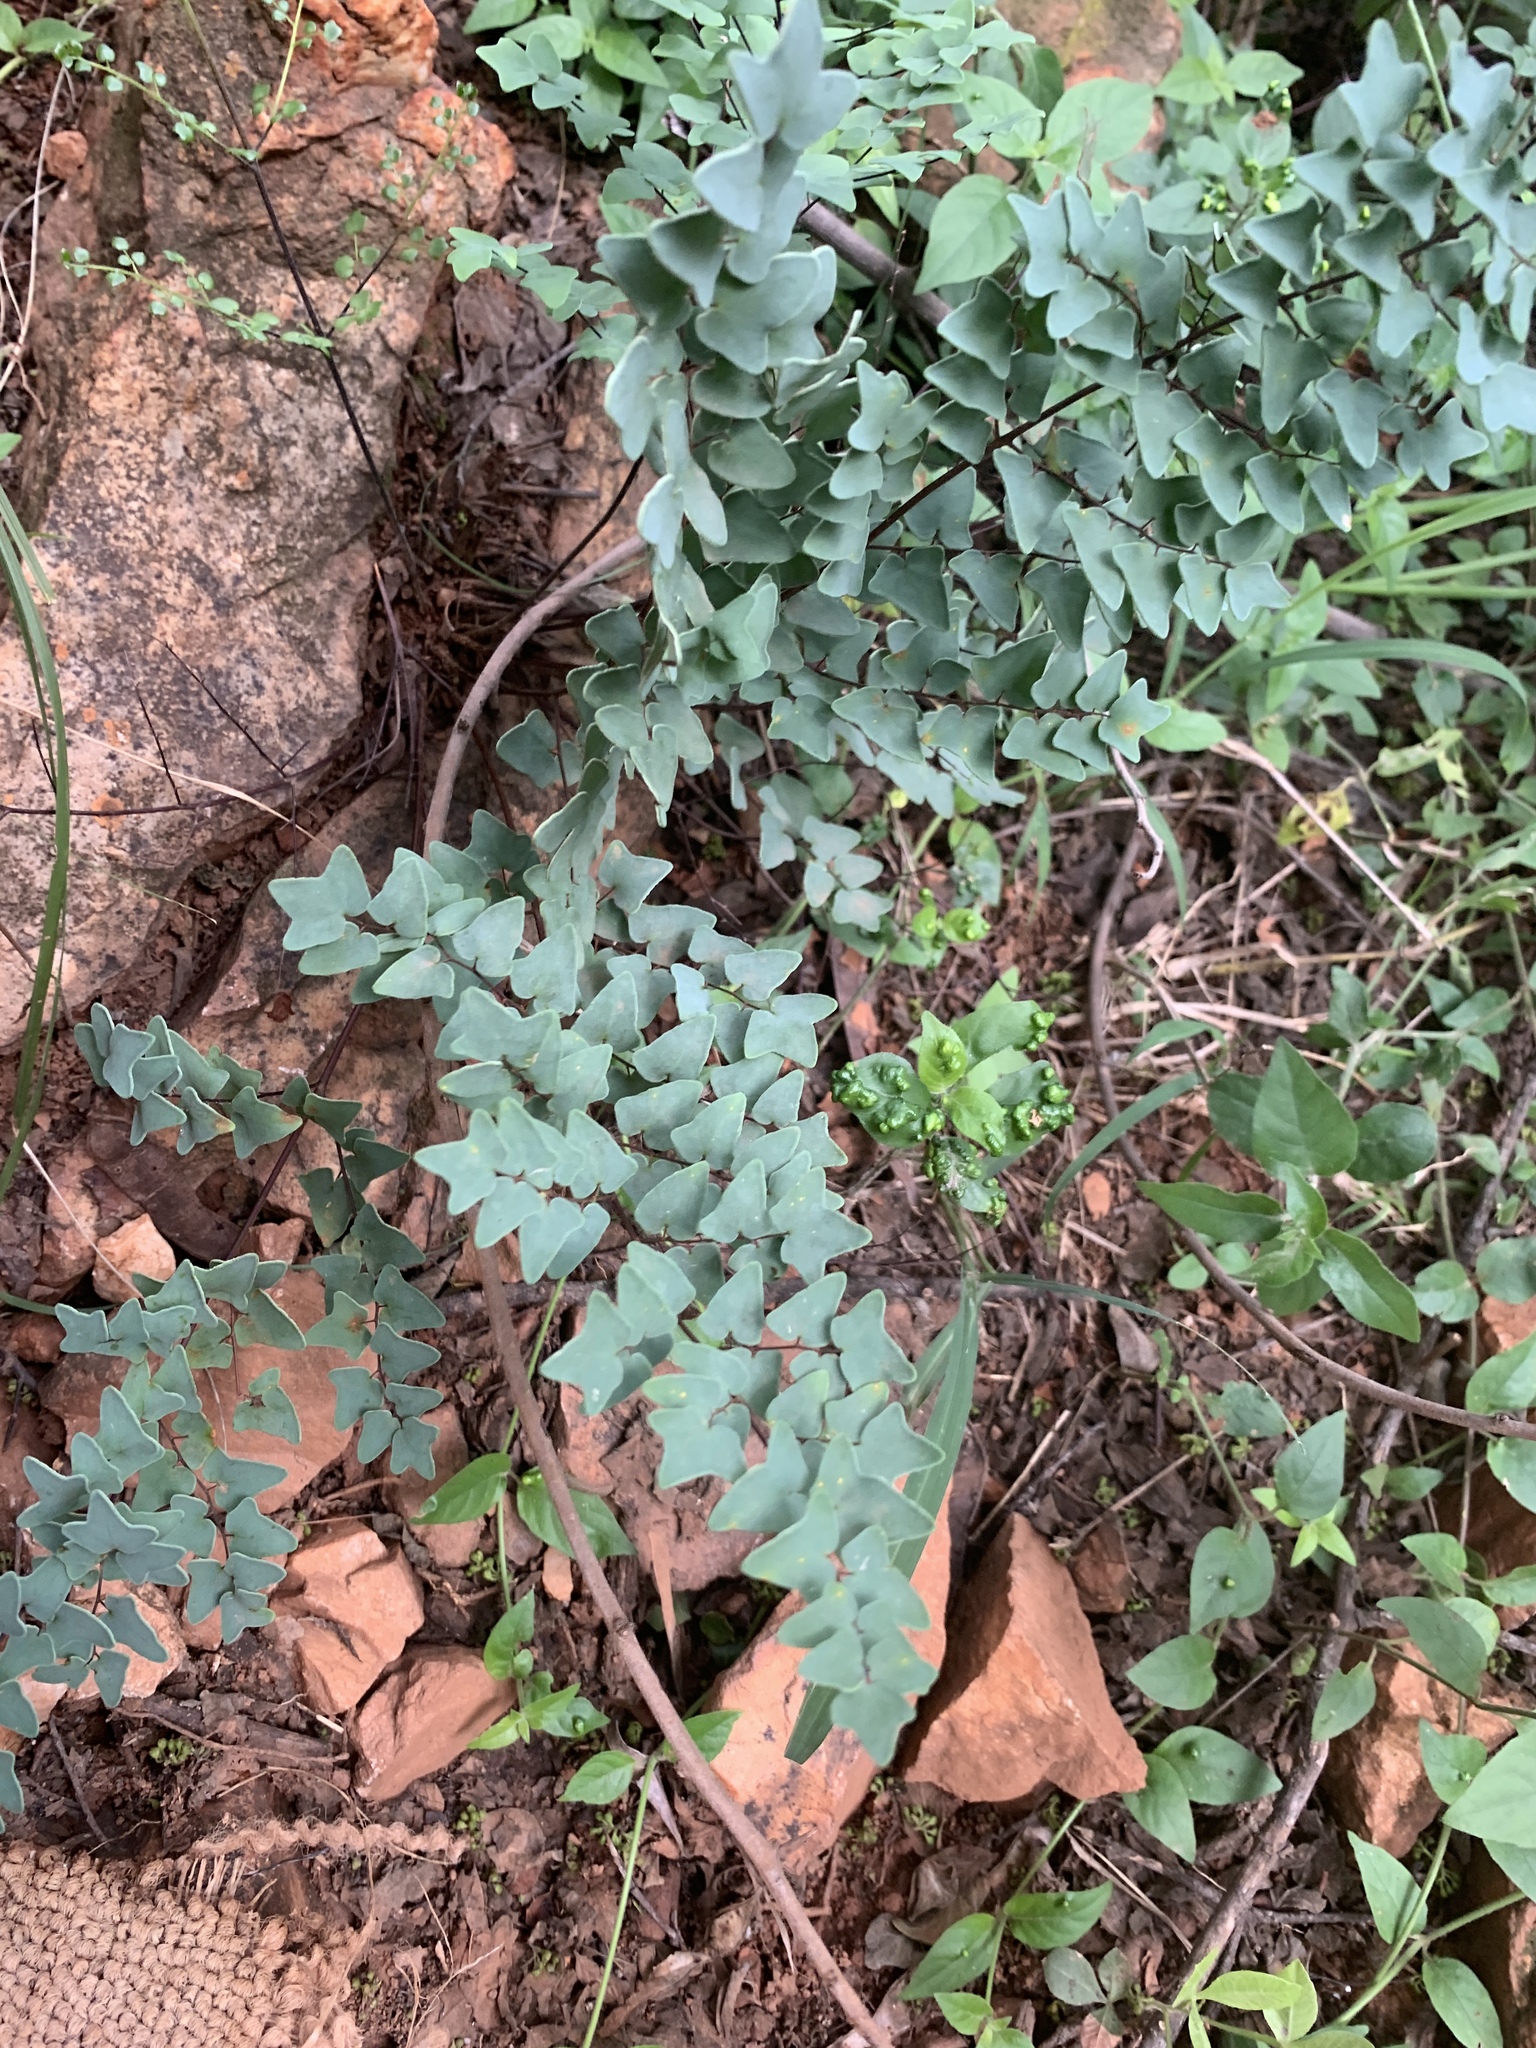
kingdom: Plantae
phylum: Tracheophyta
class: Polypodiopsida
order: Polypodiales
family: Pteridaceae
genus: Pellaea
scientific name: Pellaea calomelanos
